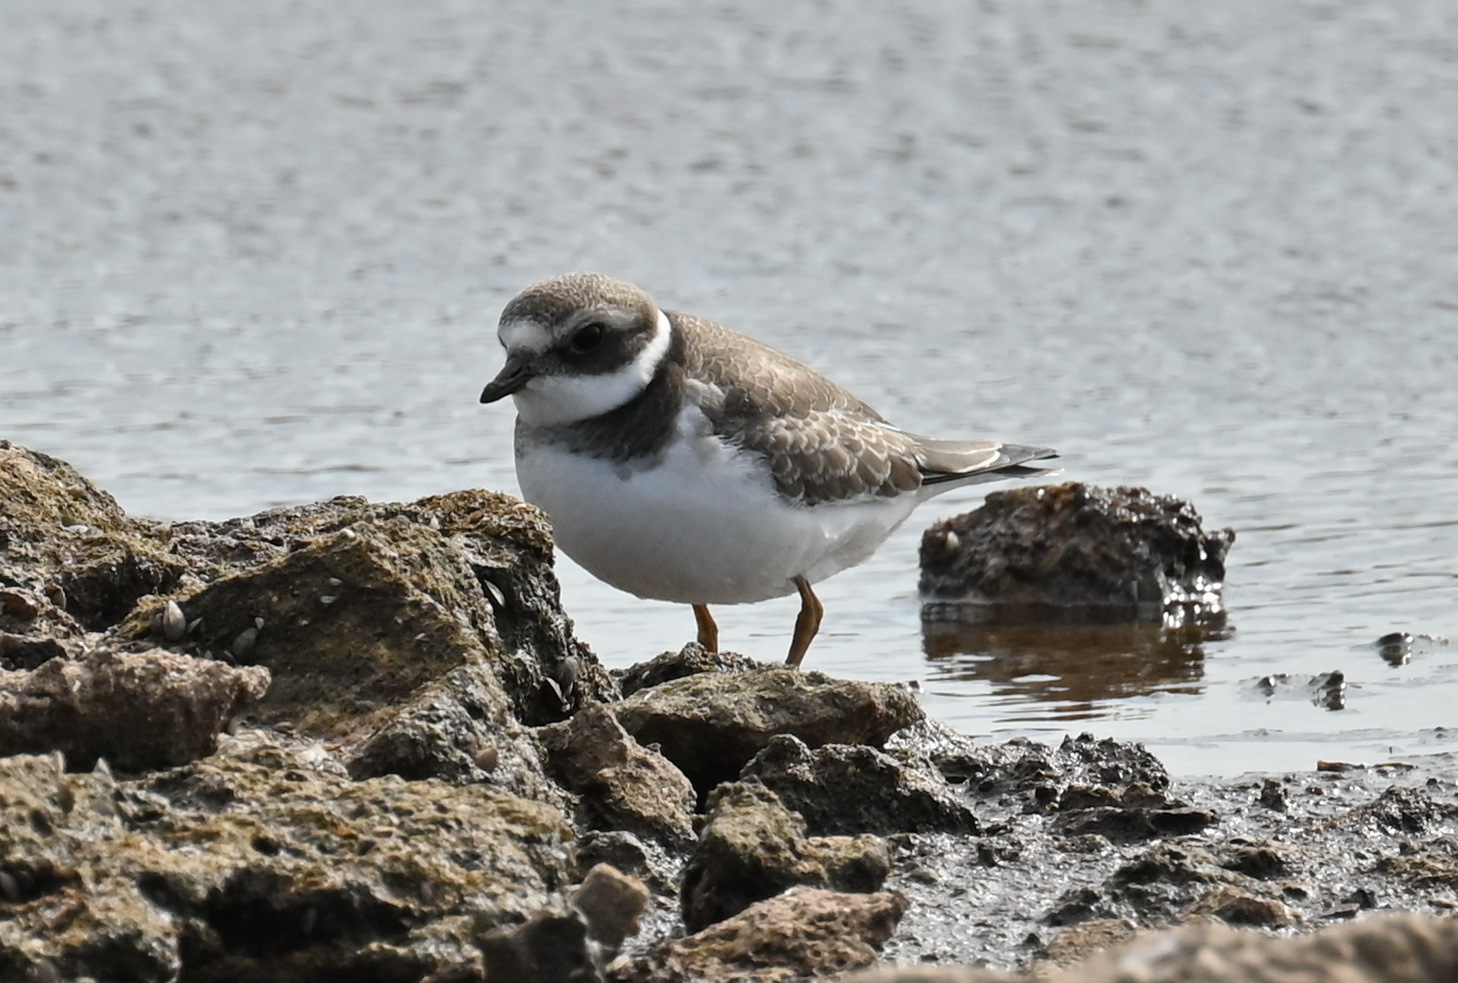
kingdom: Animalia
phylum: Chordata
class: Aves
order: Charadriiformes
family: Charadriidae
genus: Charadrius
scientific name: Charadrius hiaticula
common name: Common ringed plover
